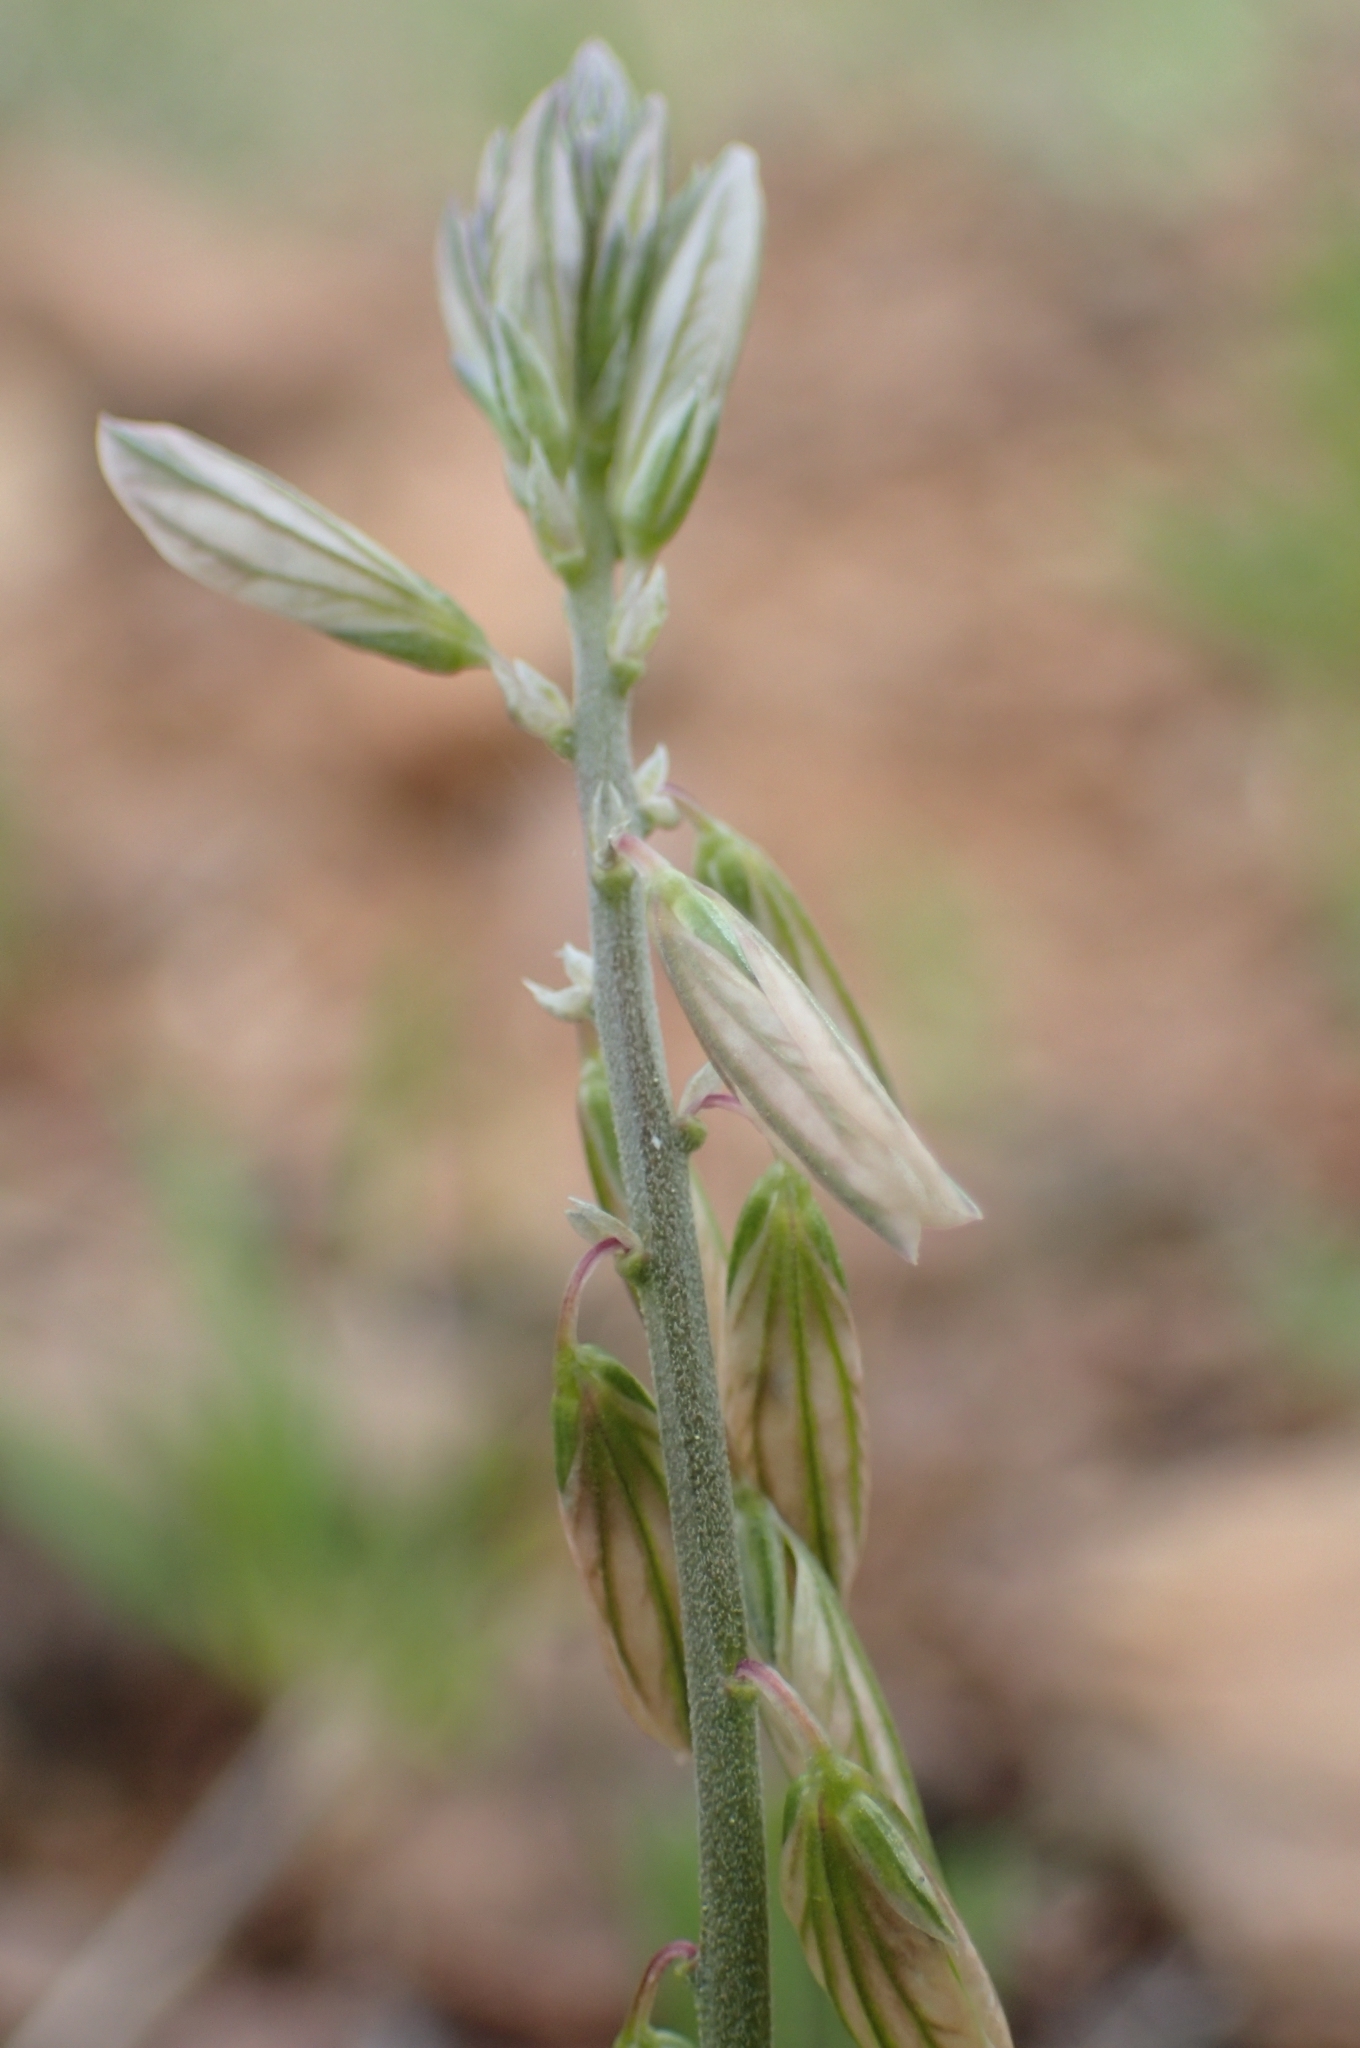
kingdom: Plantae
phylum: Tracheophyta
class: Magnoliopsida
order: Fabales
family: Polygalaceae
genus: Polygala
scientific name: Polygala monspeliaca
